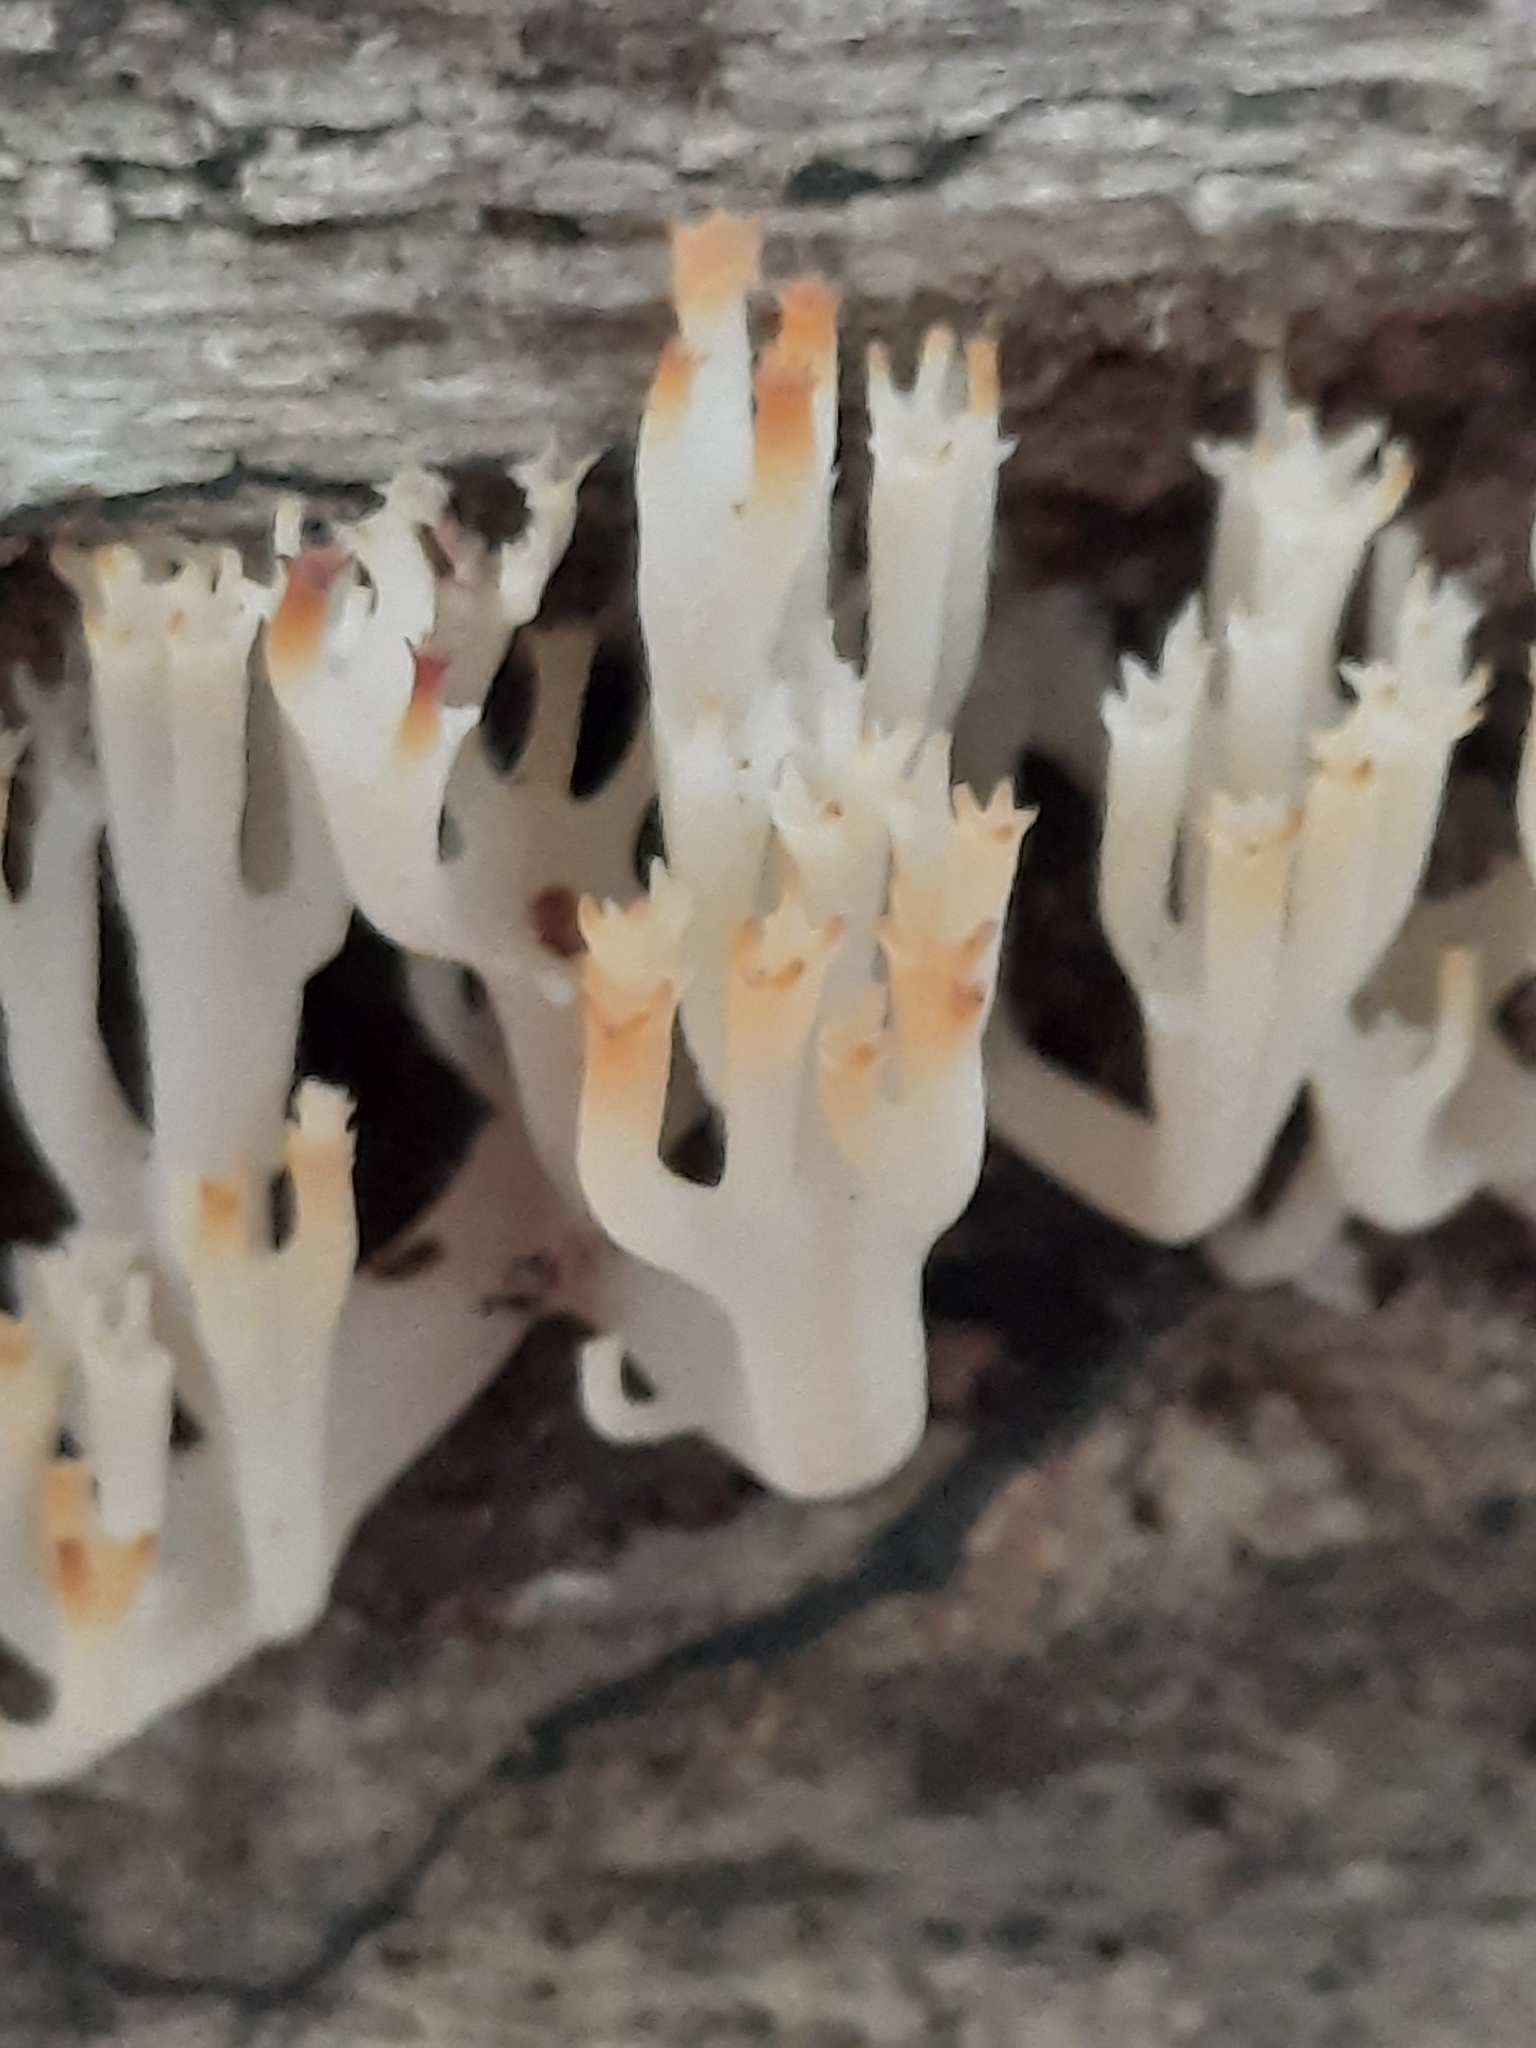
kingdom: Fungi
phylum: Basidiomycota
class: Agaricomycetes
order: Russulales
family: Auriscalpiaceae
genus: Artomyces
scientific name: Artomyces pyxidatus
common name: Crown-tipped coral fungus
